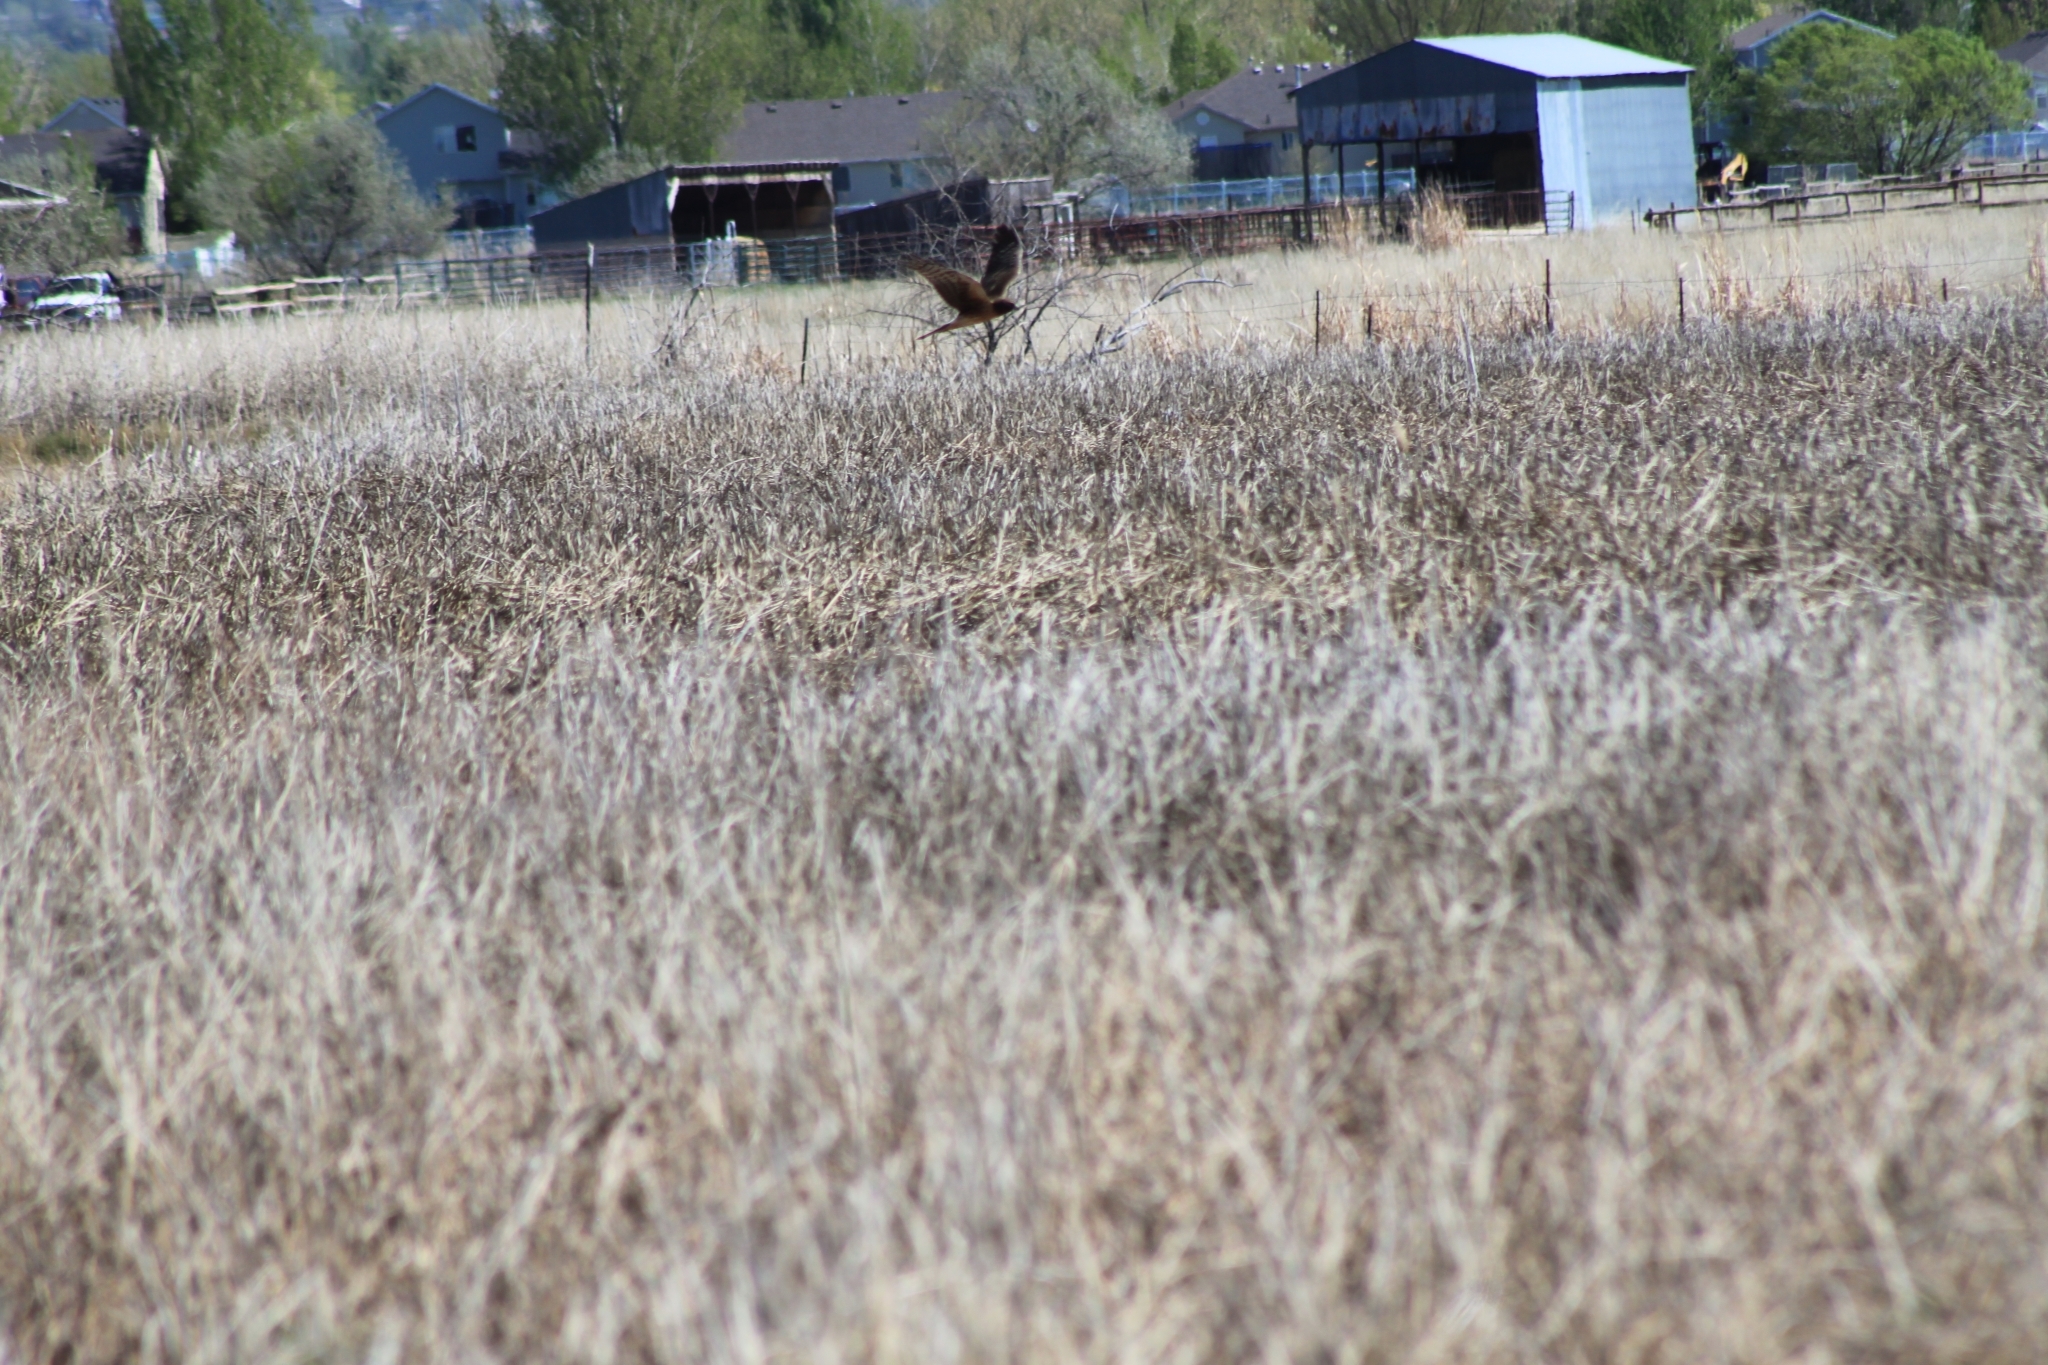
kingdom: Animalia
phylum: Chordata
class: Aves
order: Accipitriformes
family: Accipitridae
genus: Circus
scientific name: Circus cyaneus
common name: Hen harrier
